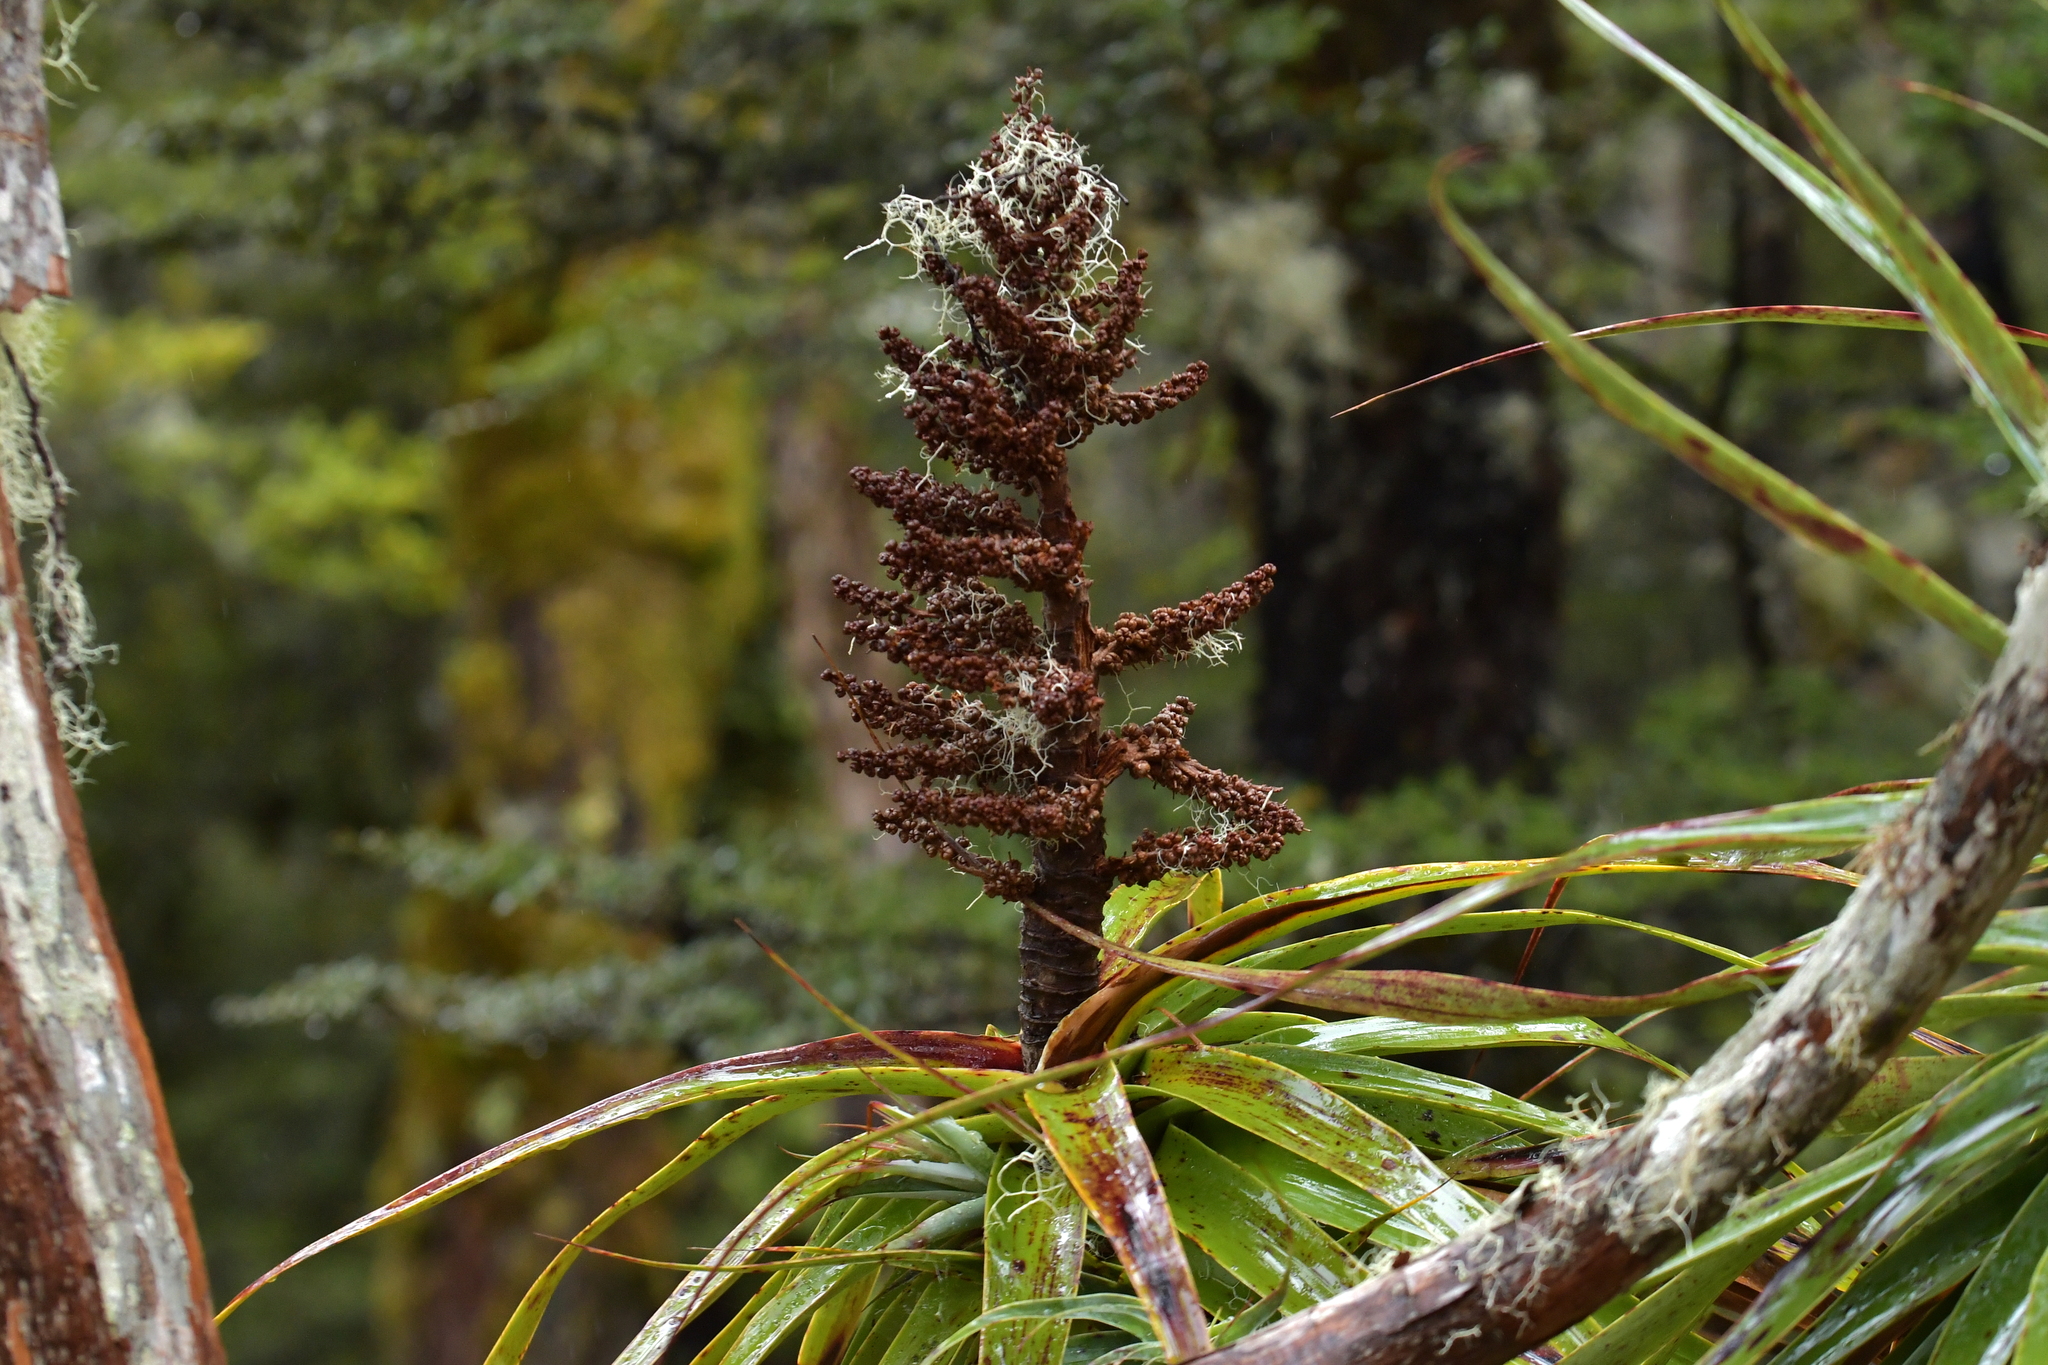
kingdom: Plantae
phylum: Tracheophyta
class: Magnoliopsida
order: Ericales
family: Ericaceae
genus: Dracophyllum
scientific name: Dracophyllum traversii
